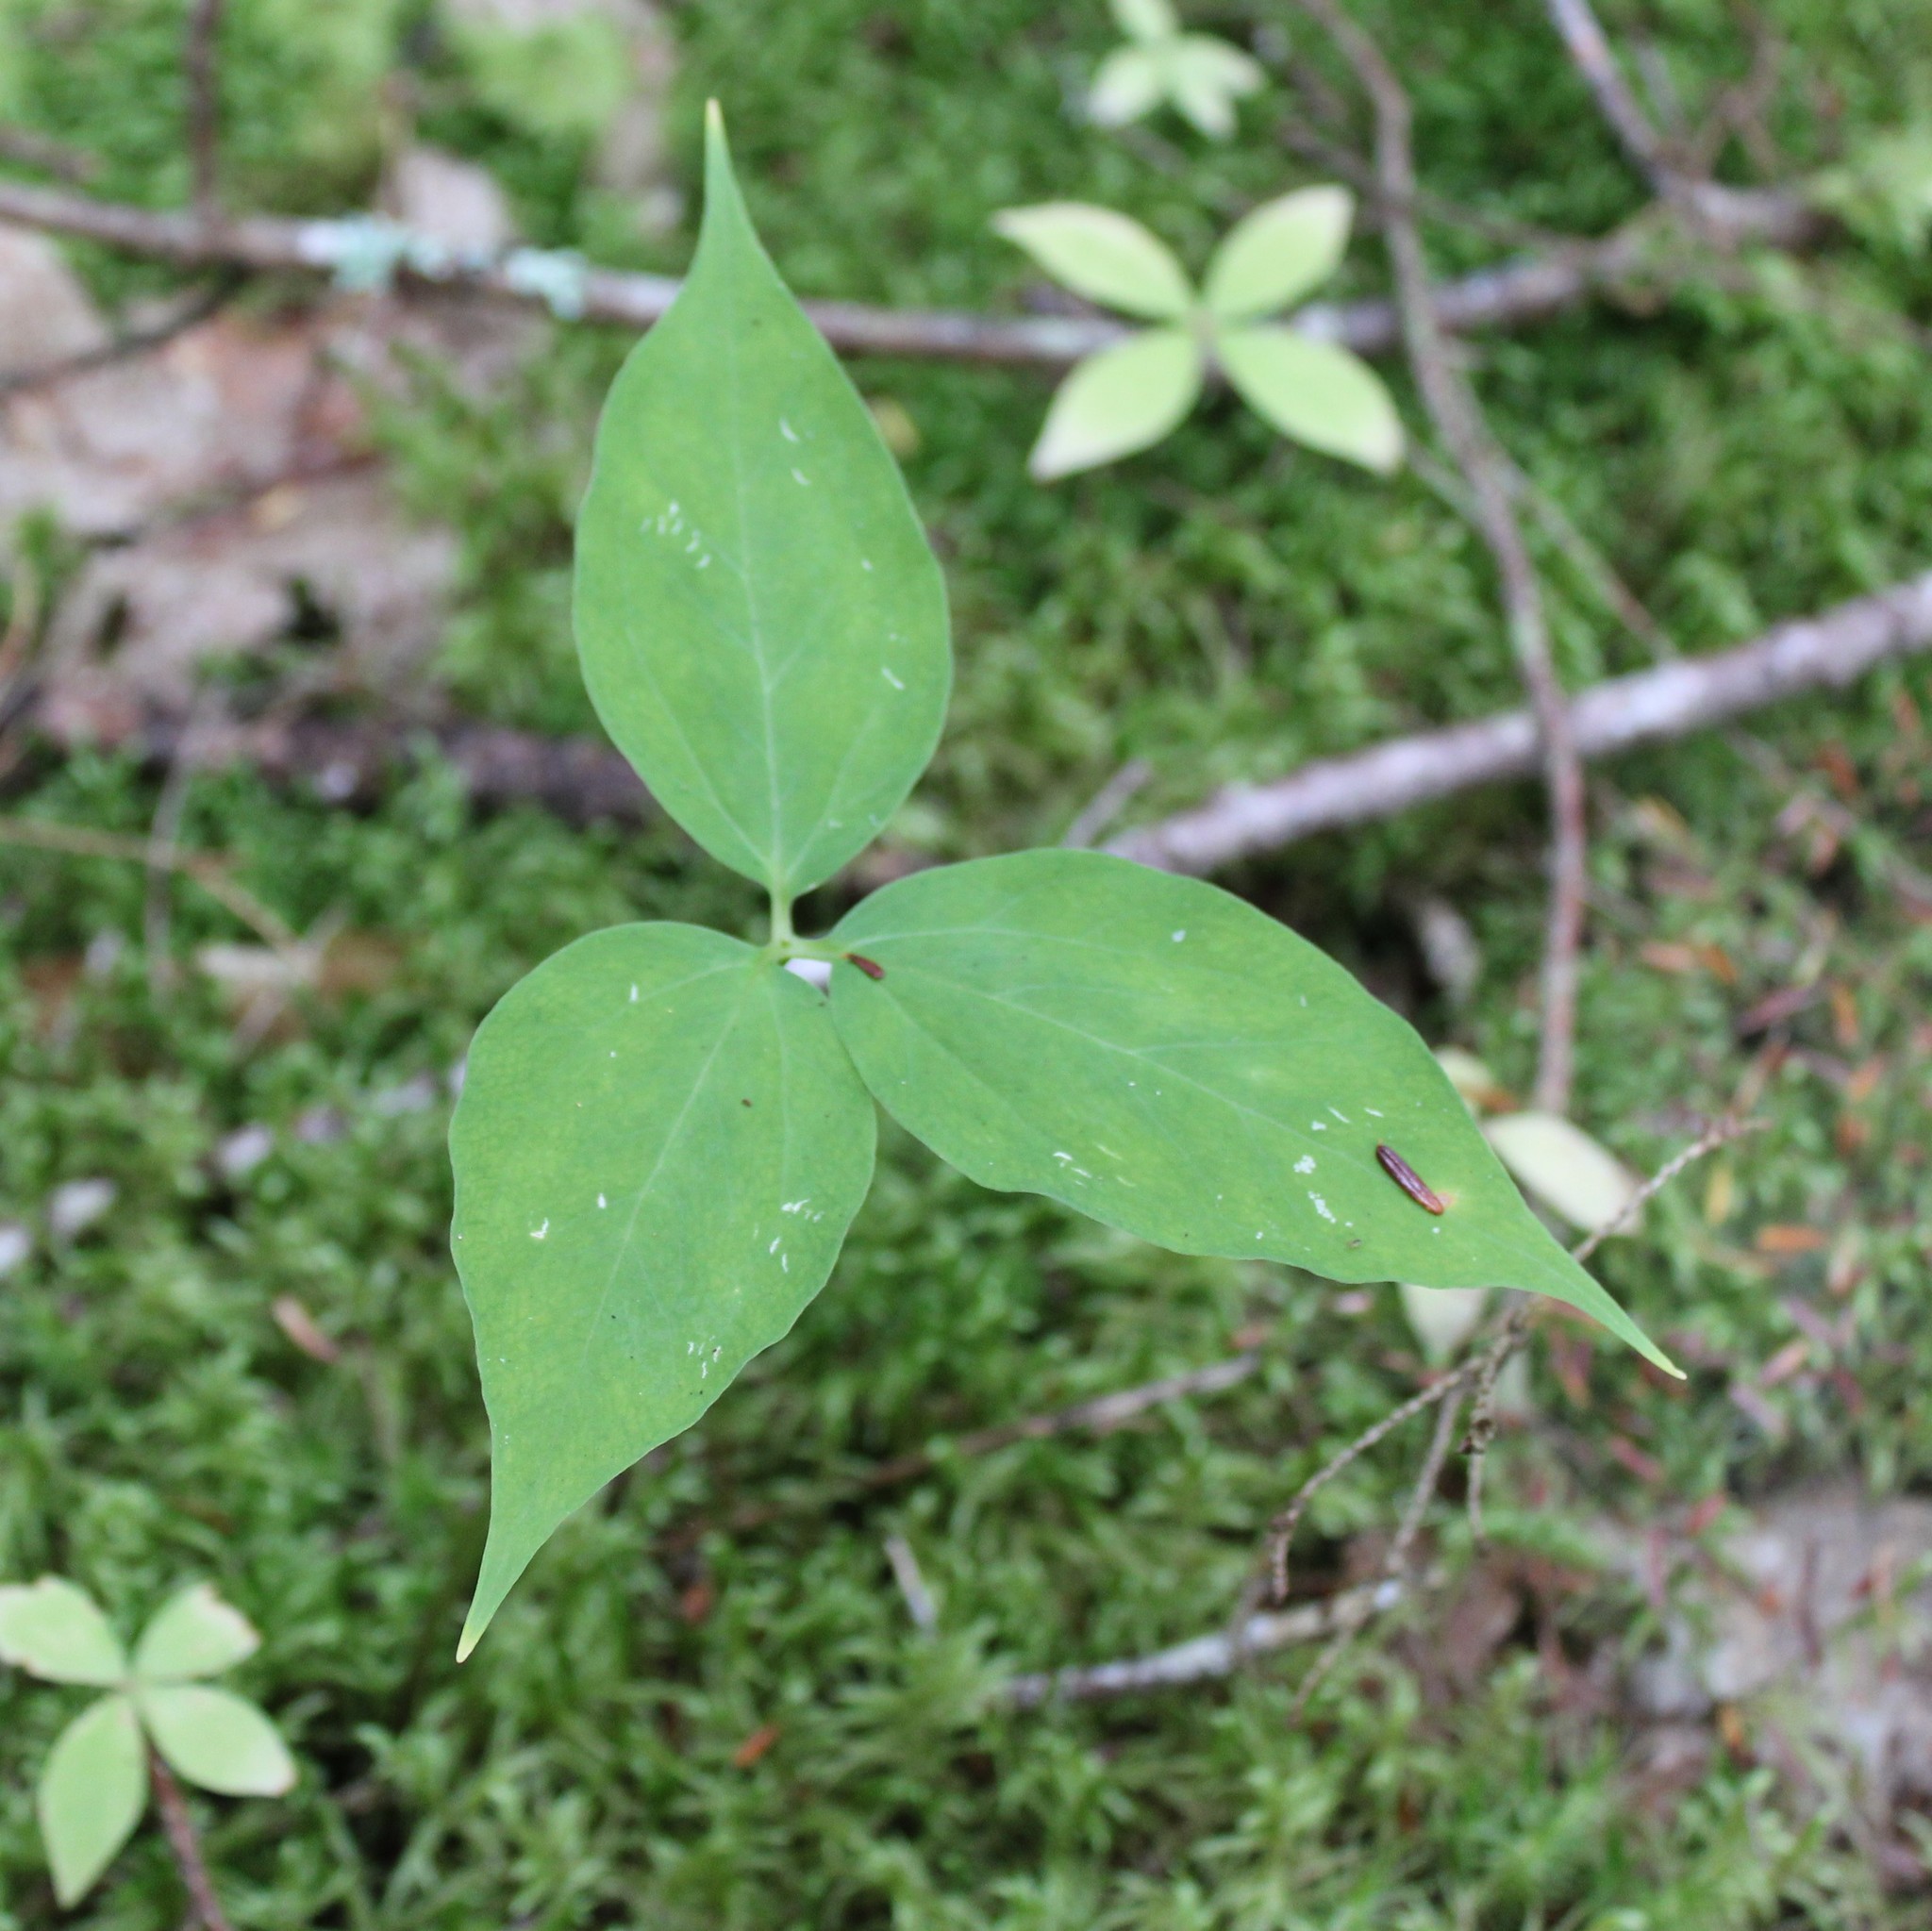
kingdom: Plantae
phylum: Tracheophyta
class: Liliopsida
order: Liliales
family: Melanthiaceae
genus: Trillium
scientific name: Trillium undulatum
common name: Paint trillium
